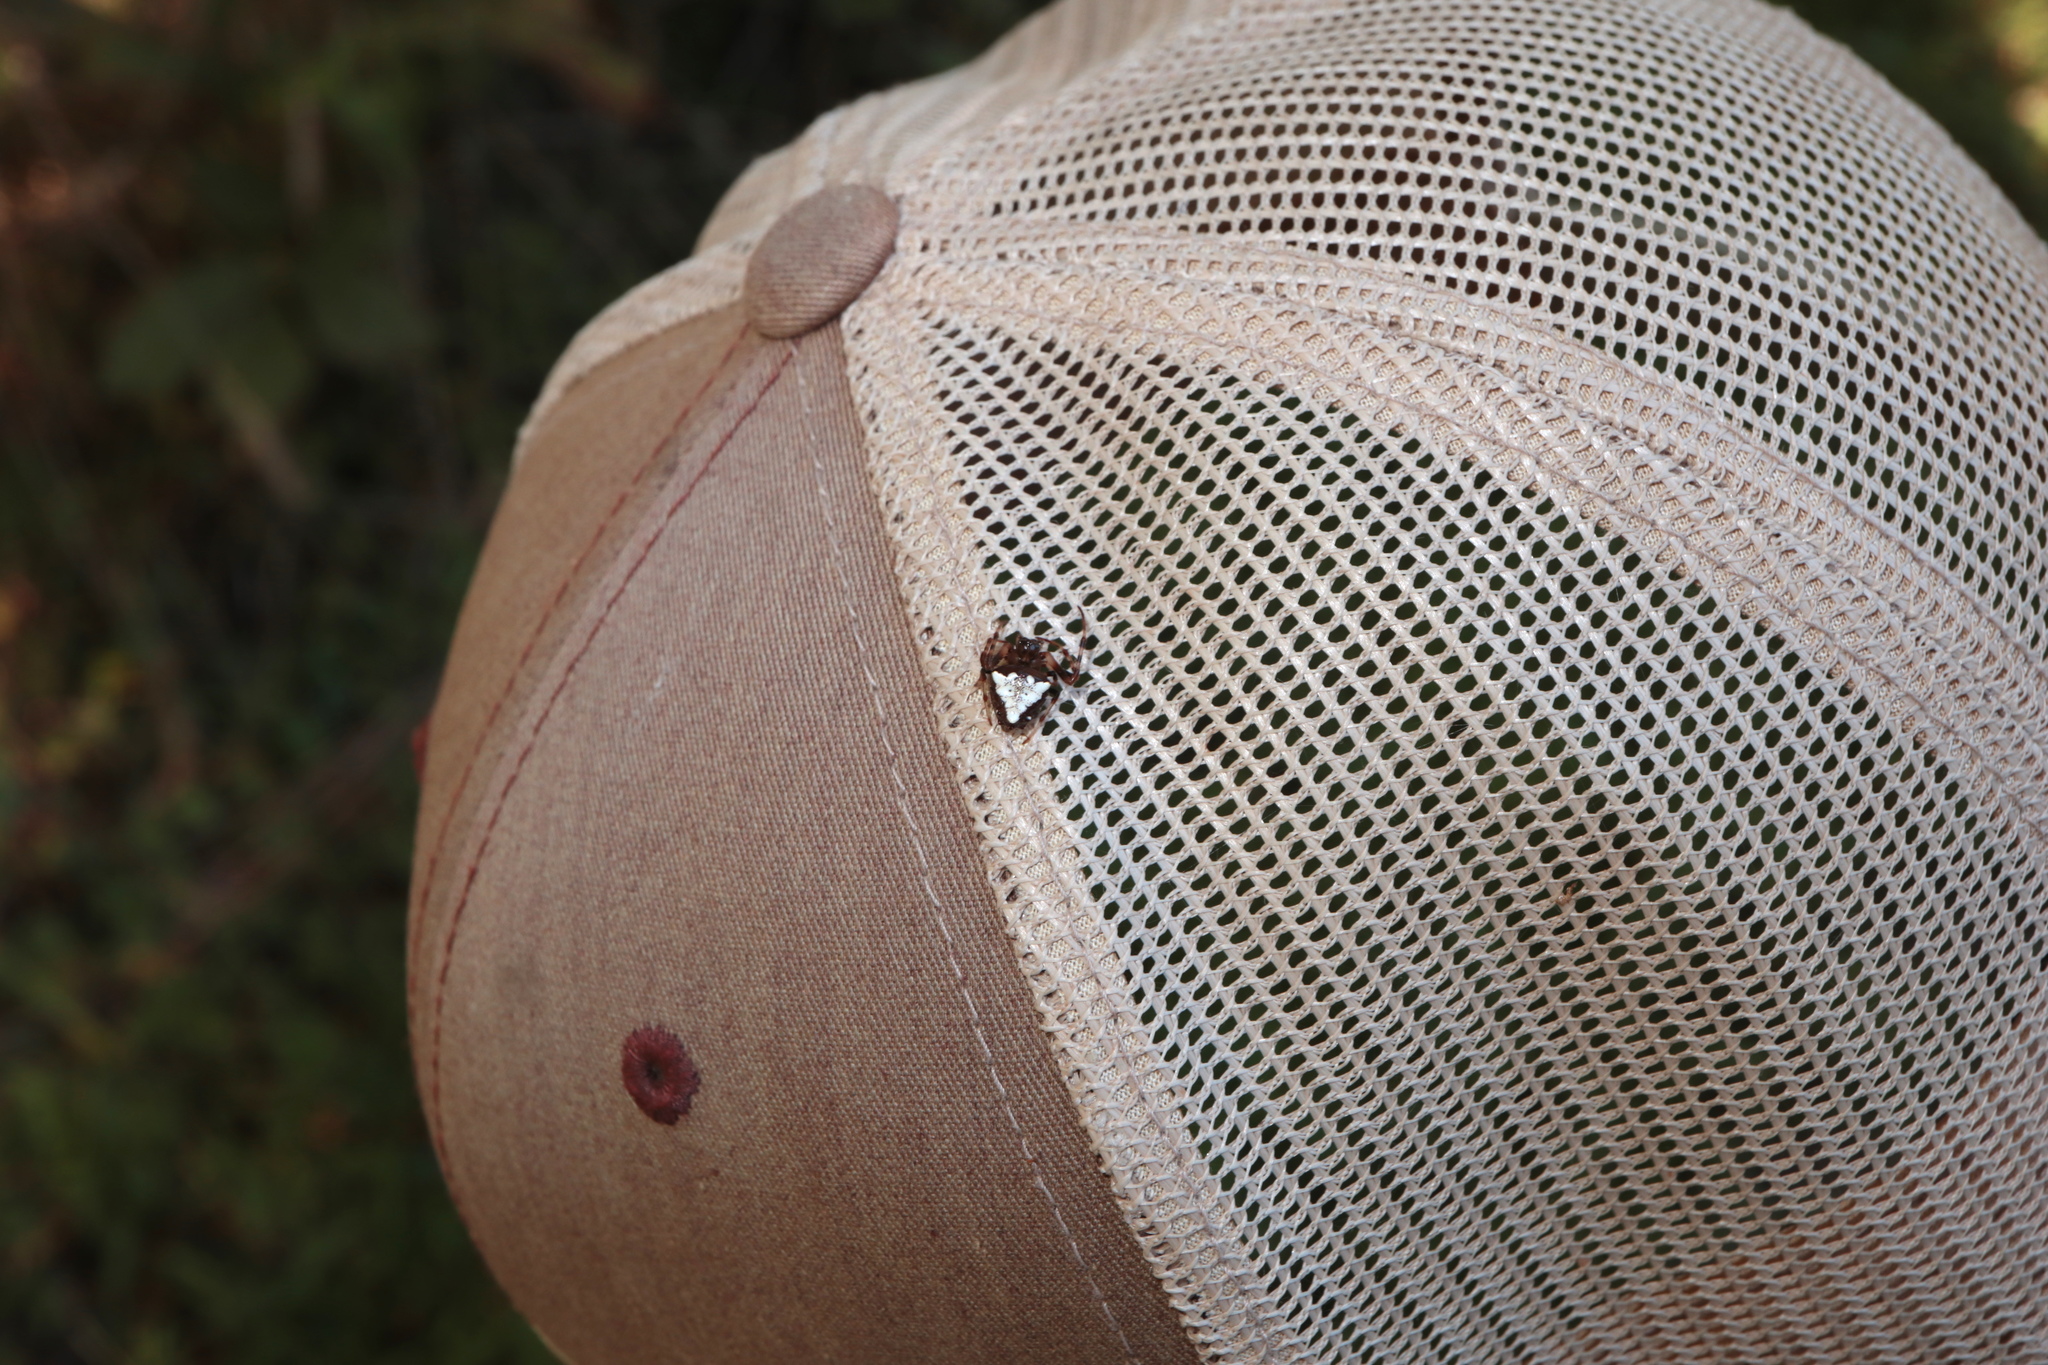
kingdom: Animalia
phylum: Arthropoda
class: Arachnida
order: Araneae
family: Araneidae
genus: Verrucosa
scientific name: Verrucosa arenata
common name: Orb weavers
